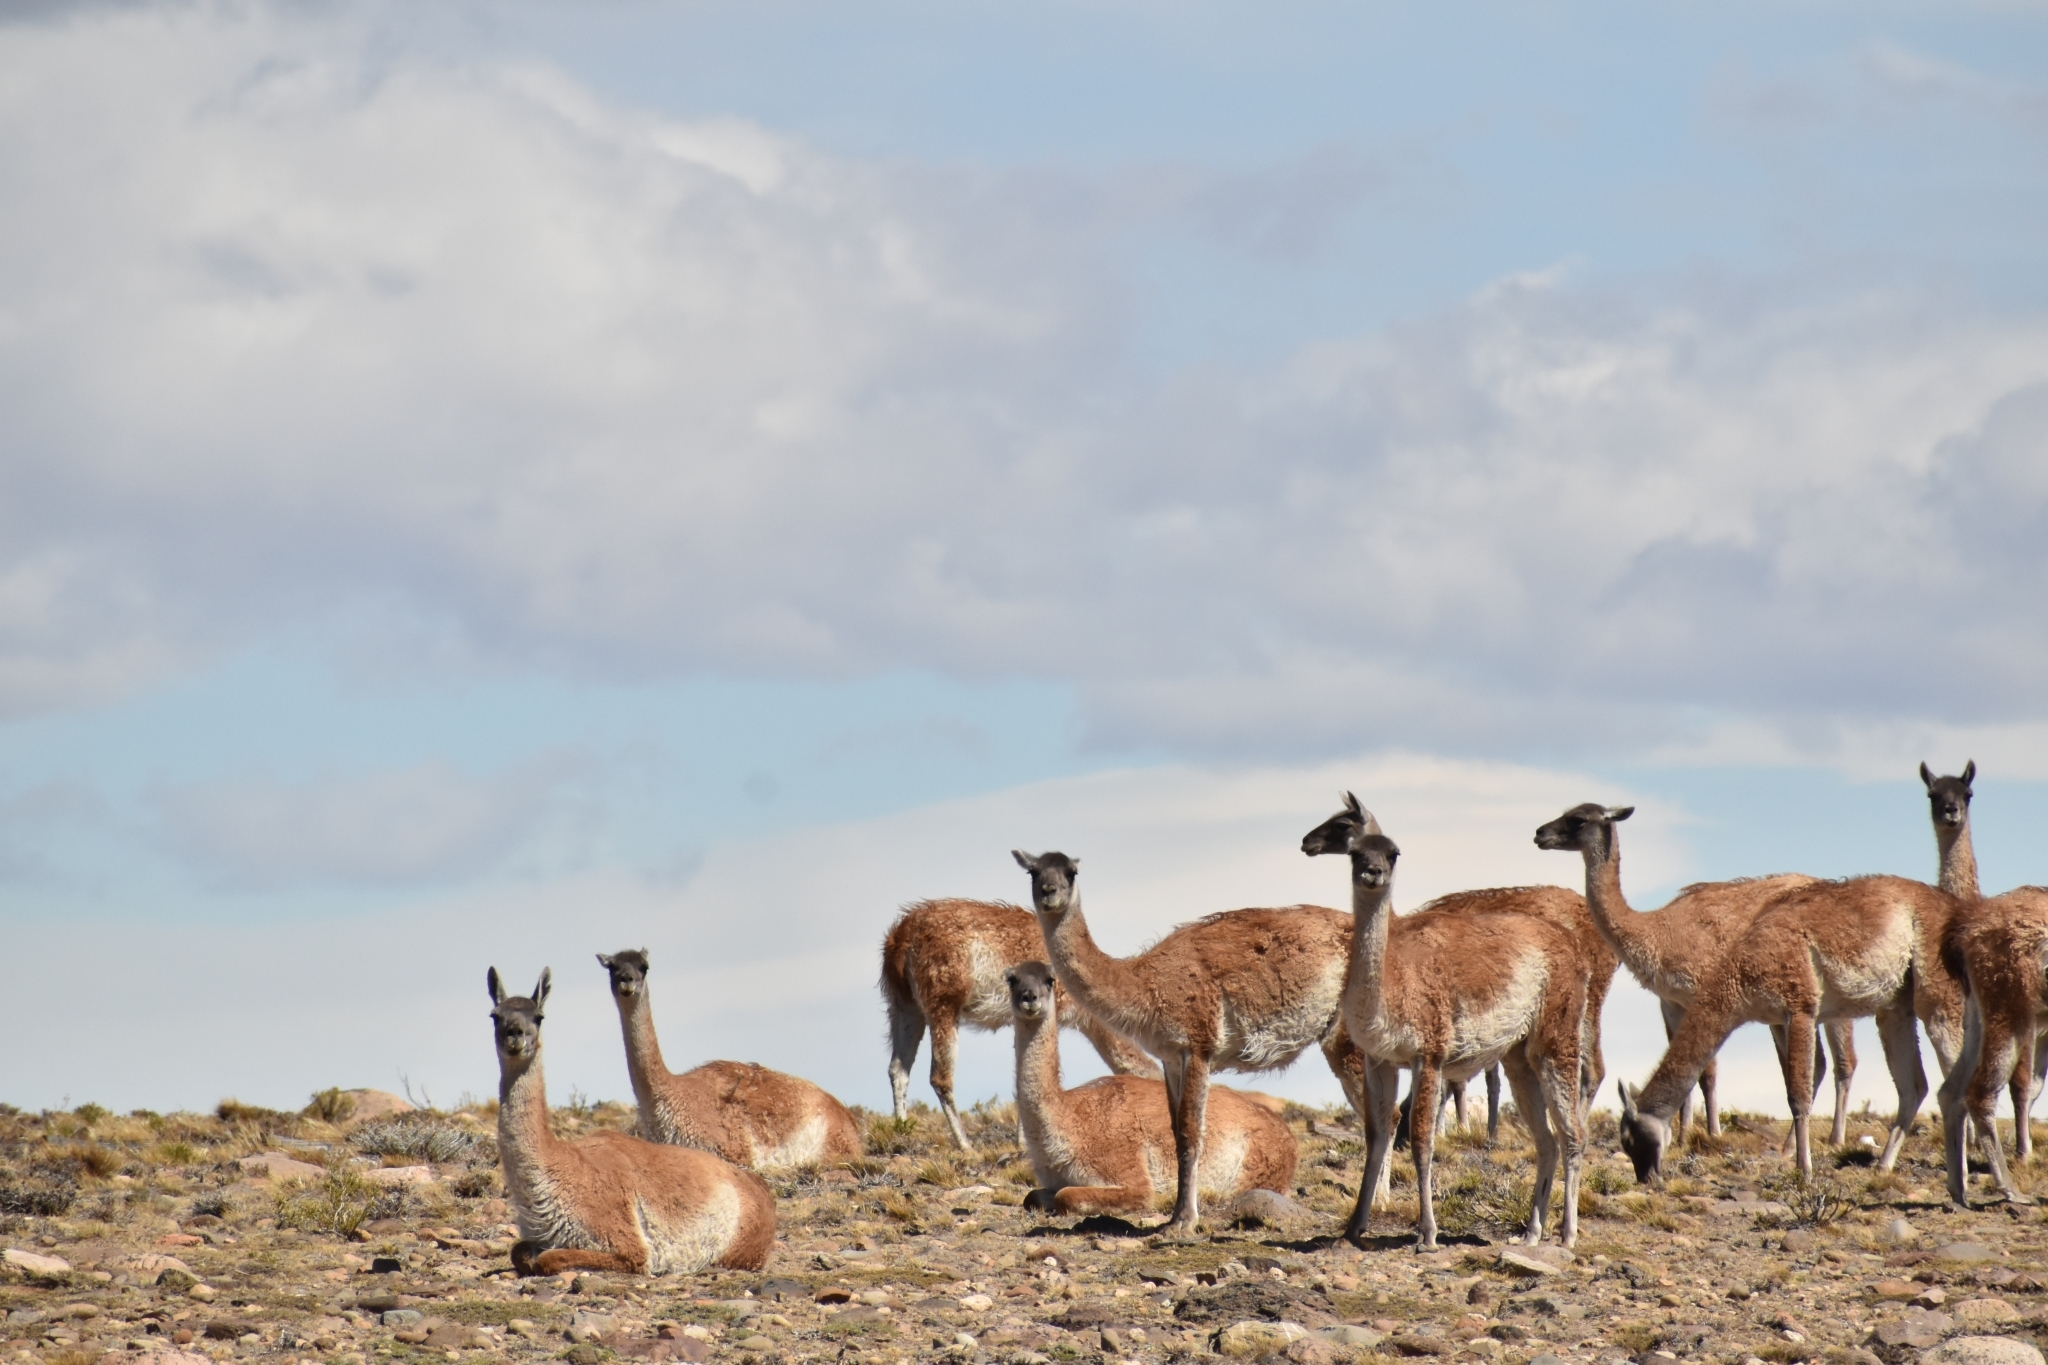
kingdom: Animalia
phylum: Chordata
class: Mammalia
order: Artiodactyla
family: Camelidae
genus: Lama
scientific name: Lama glama
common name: Llama
